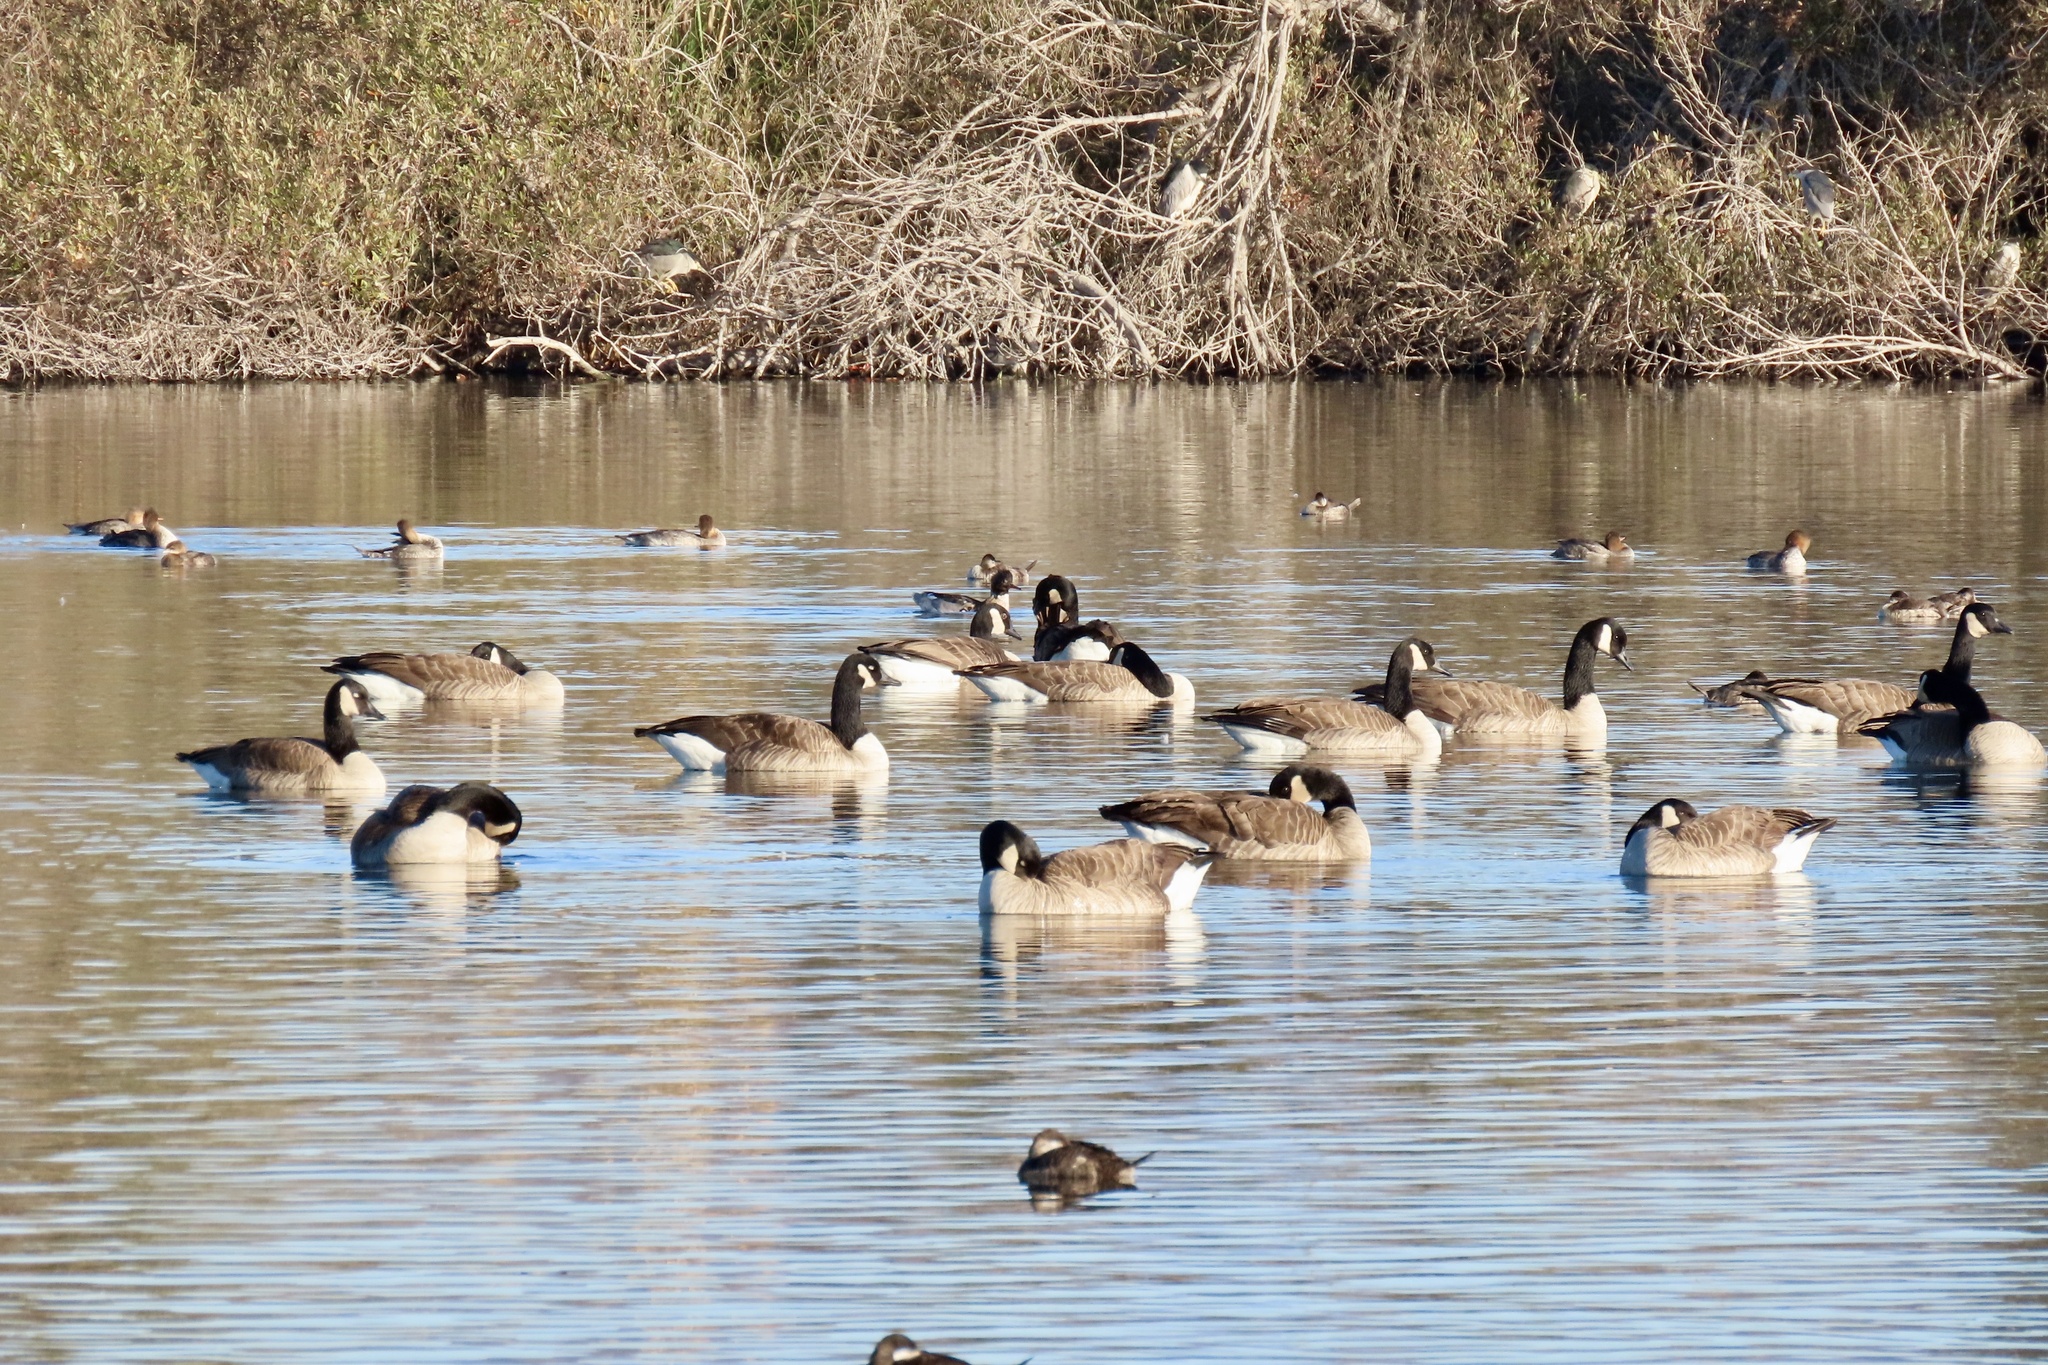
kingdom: Animalia
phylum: Chordata
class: Aves
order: Anseriformes
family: Anatidae
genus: Branta
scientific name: Branta canadensis
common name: Canada goose
